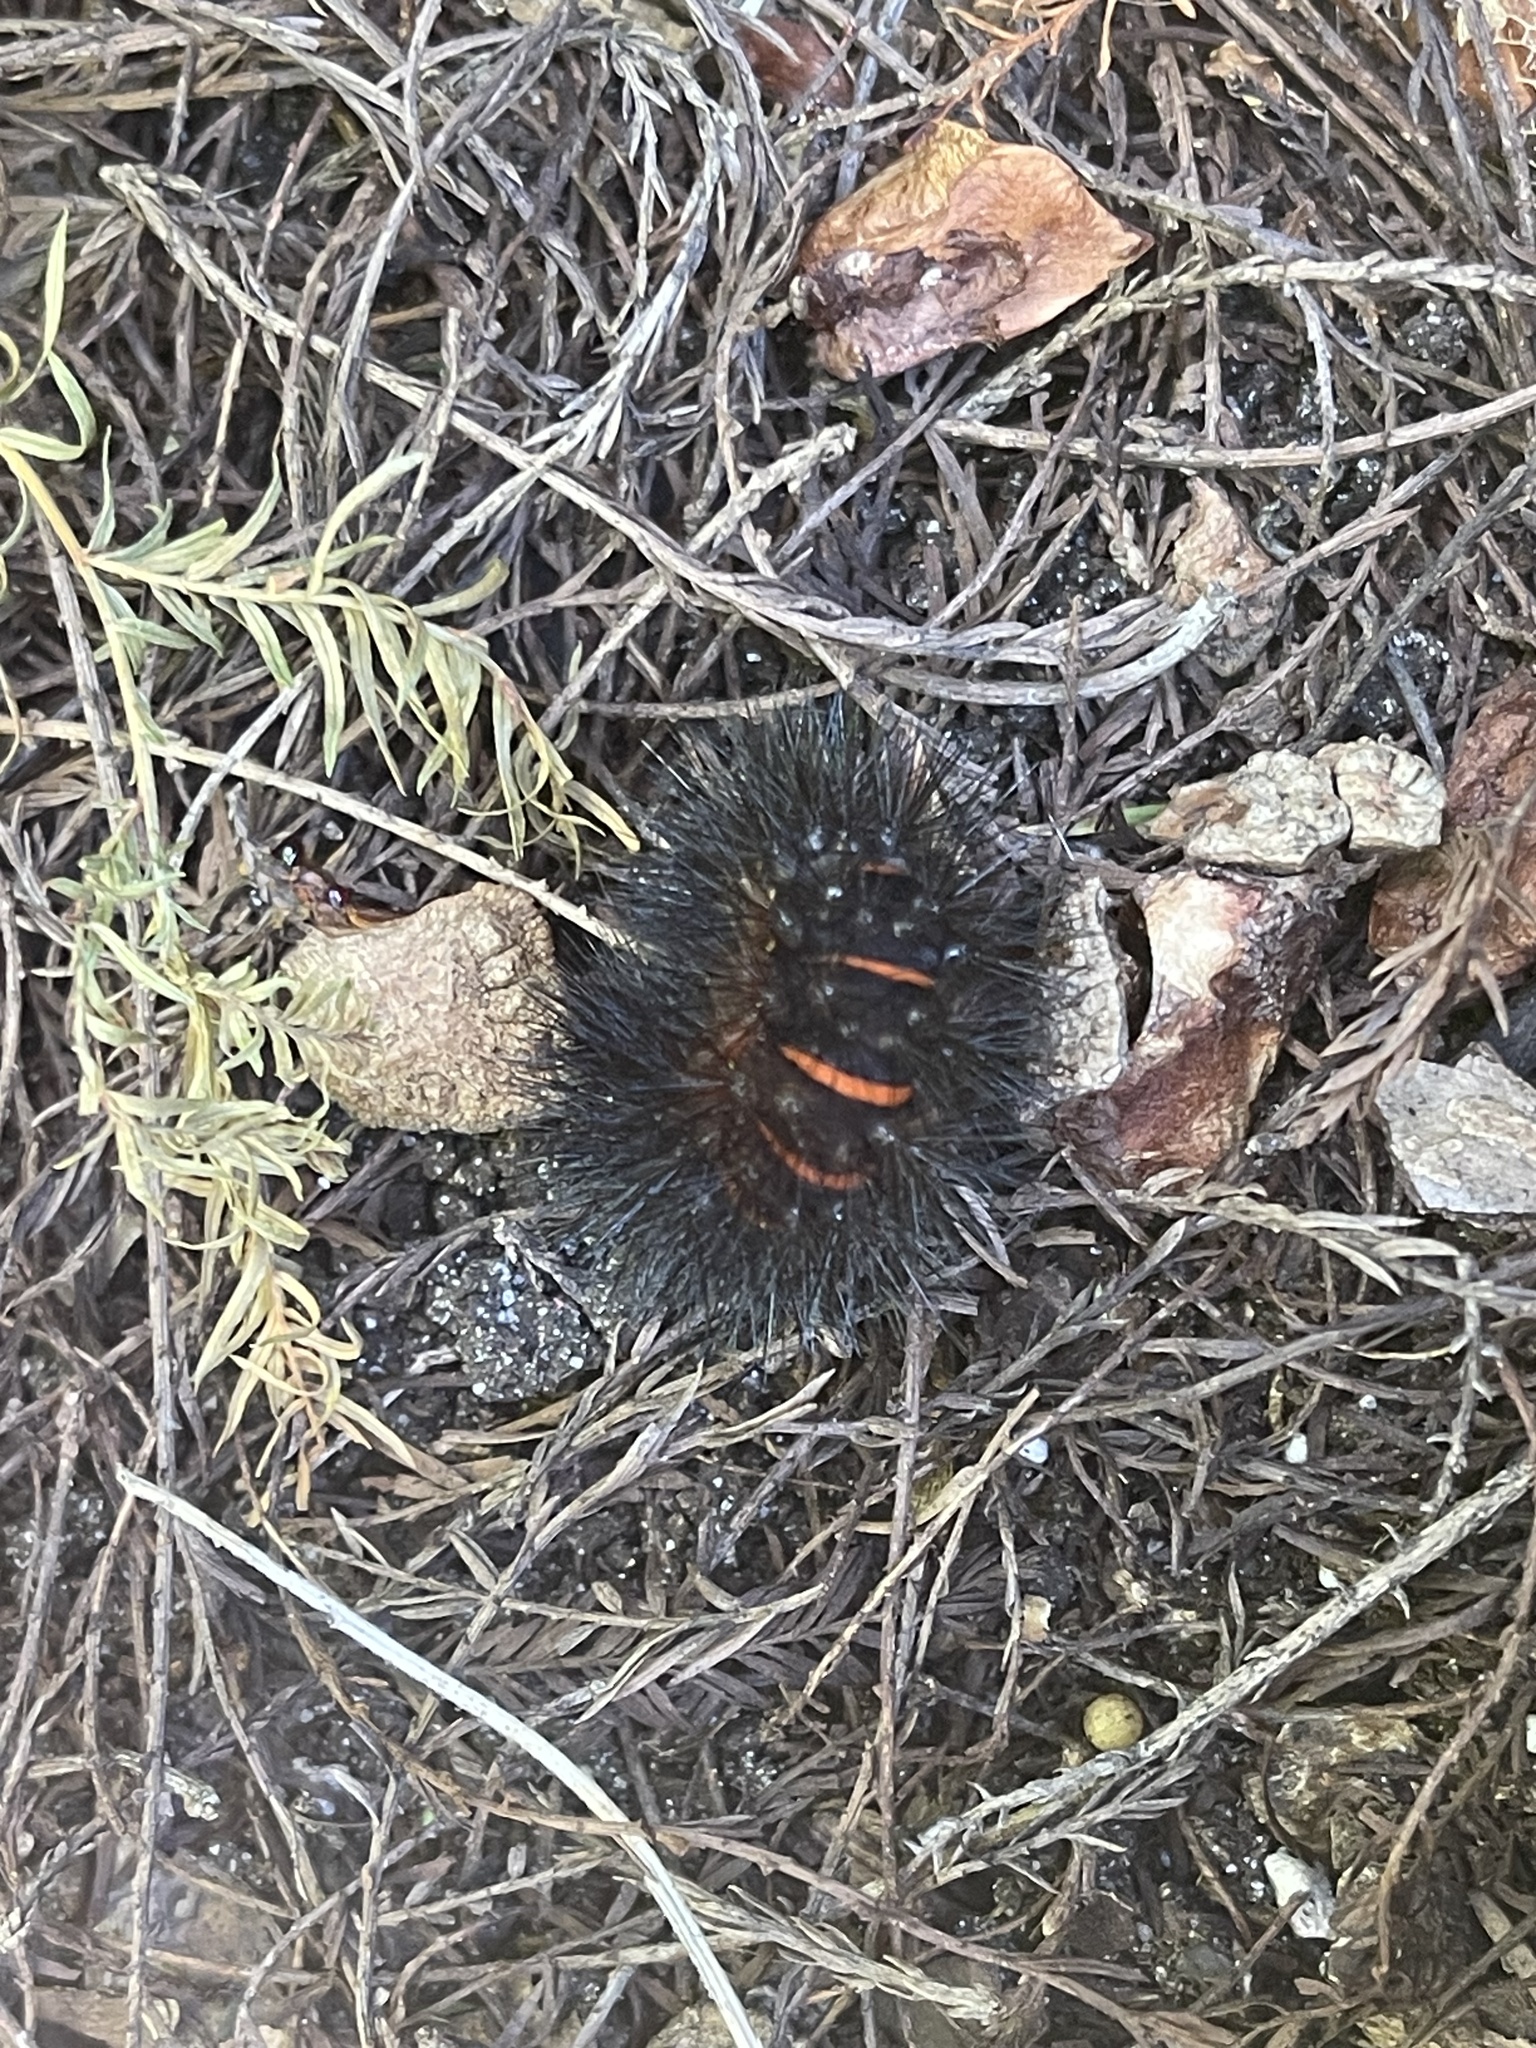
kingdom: Animalia
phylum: Arthropoda
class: Insecta
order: Lepidoptera
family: Erebidae
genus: Hypercompe
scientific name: Hypercompe scribonia
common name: Giant leopard moth
